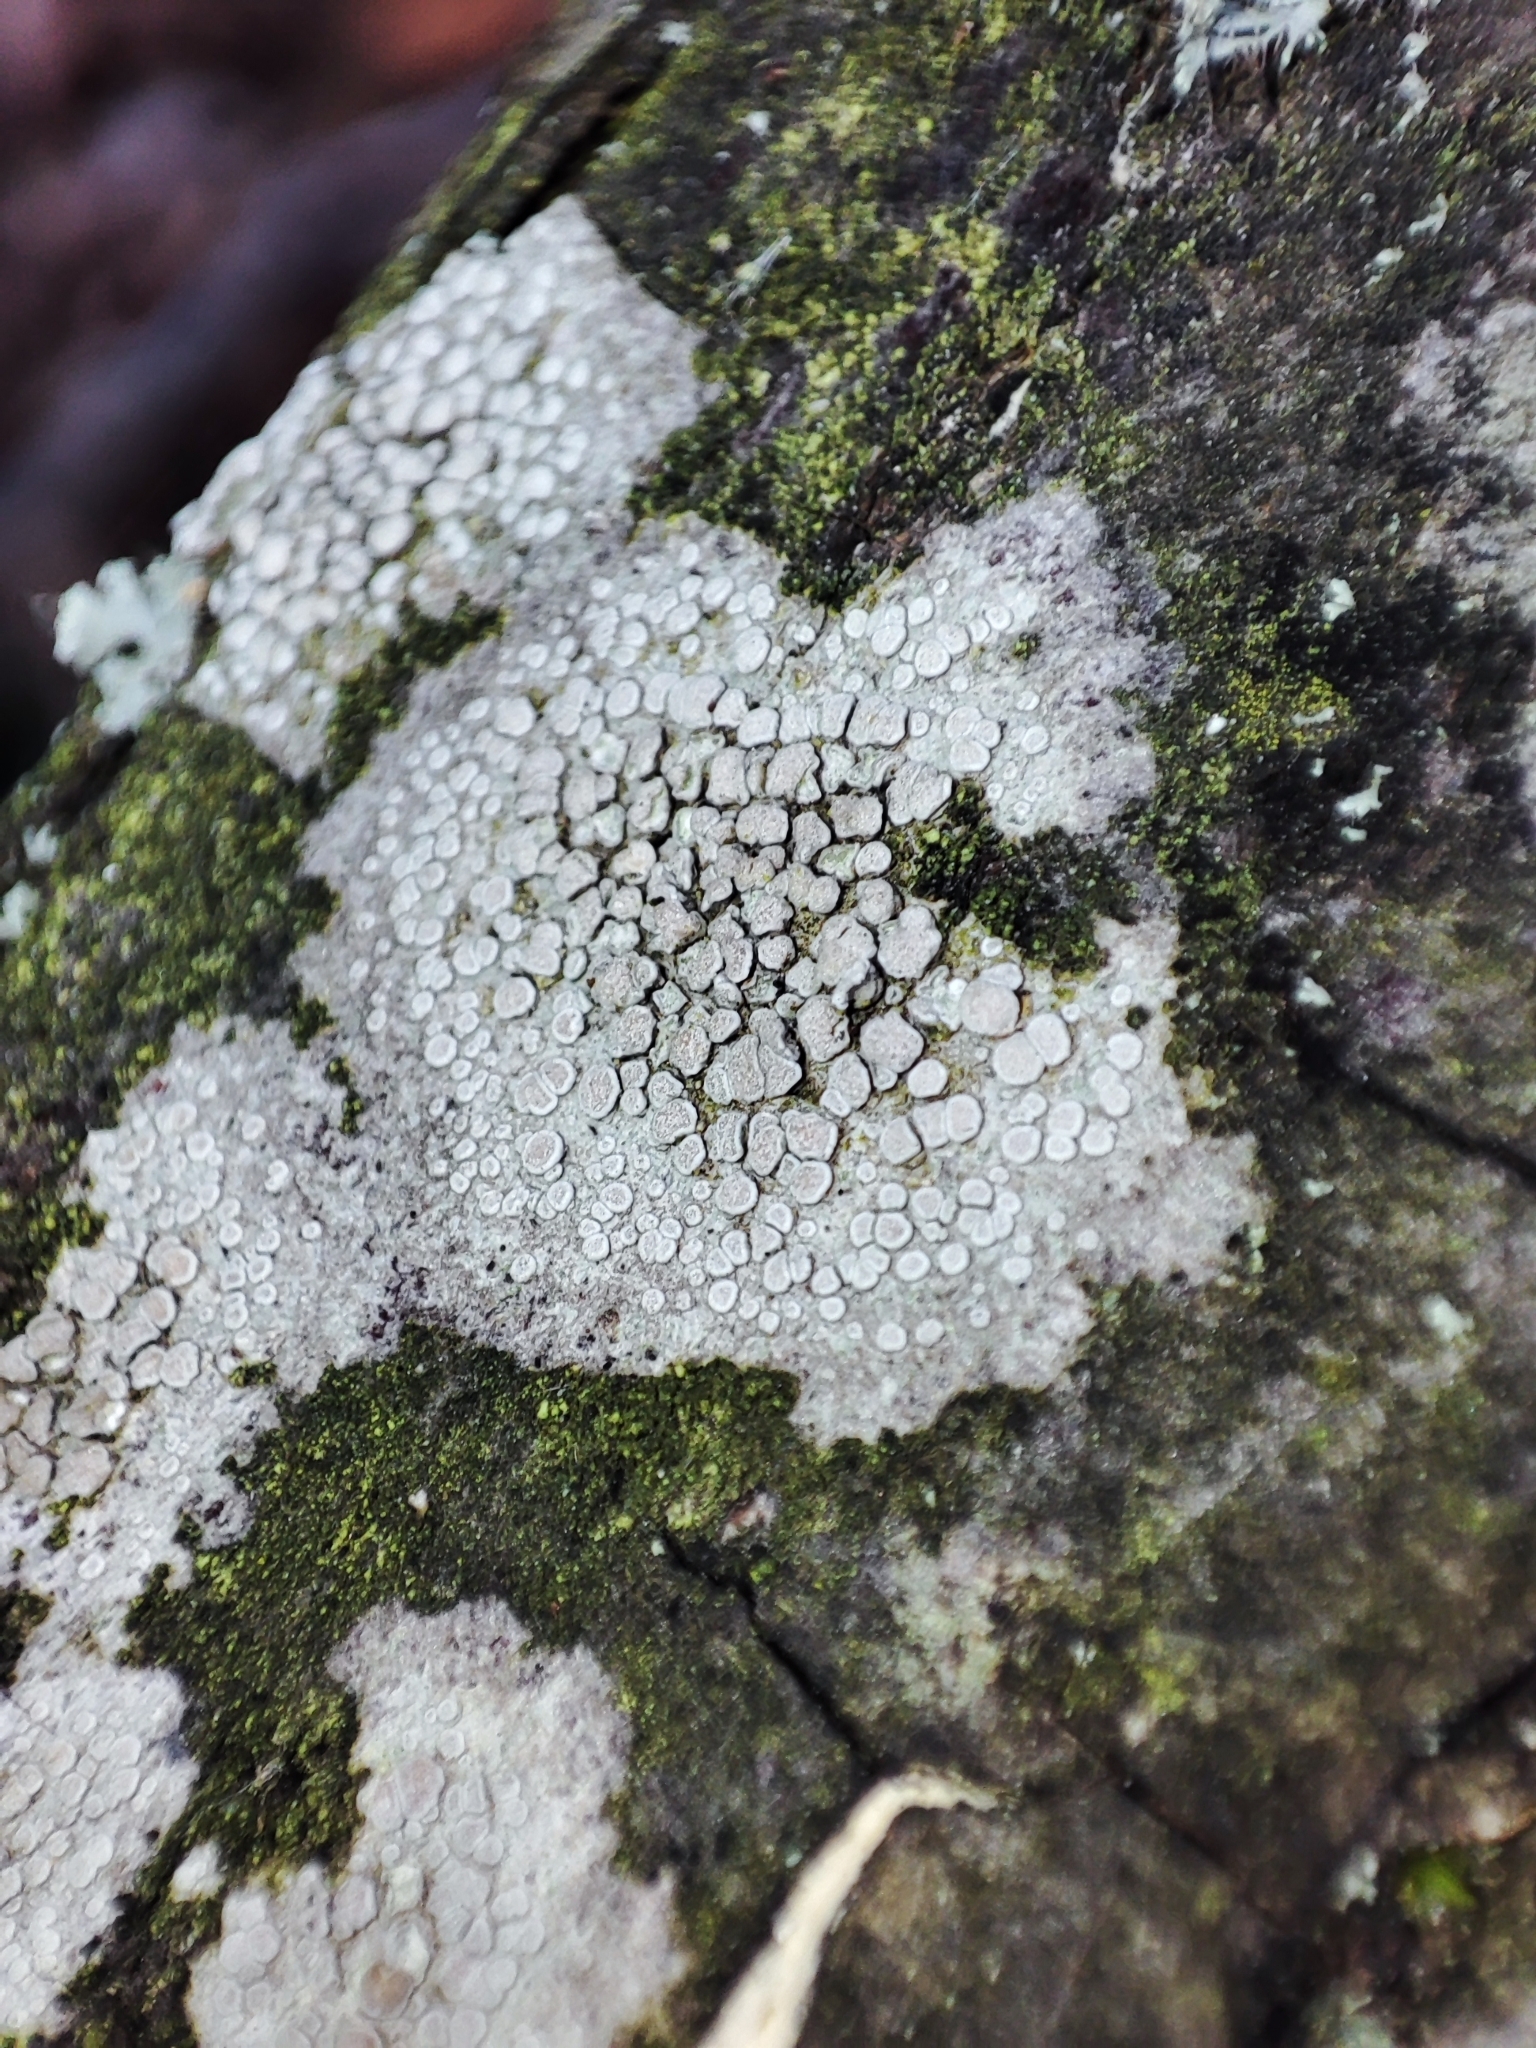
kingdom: Fungi
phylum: Ascomycota
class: Lecanoromycetes
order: Lecanorales
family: Lecanoraceae
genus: Glaucomaria
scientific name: Glaucomaria carpinea
